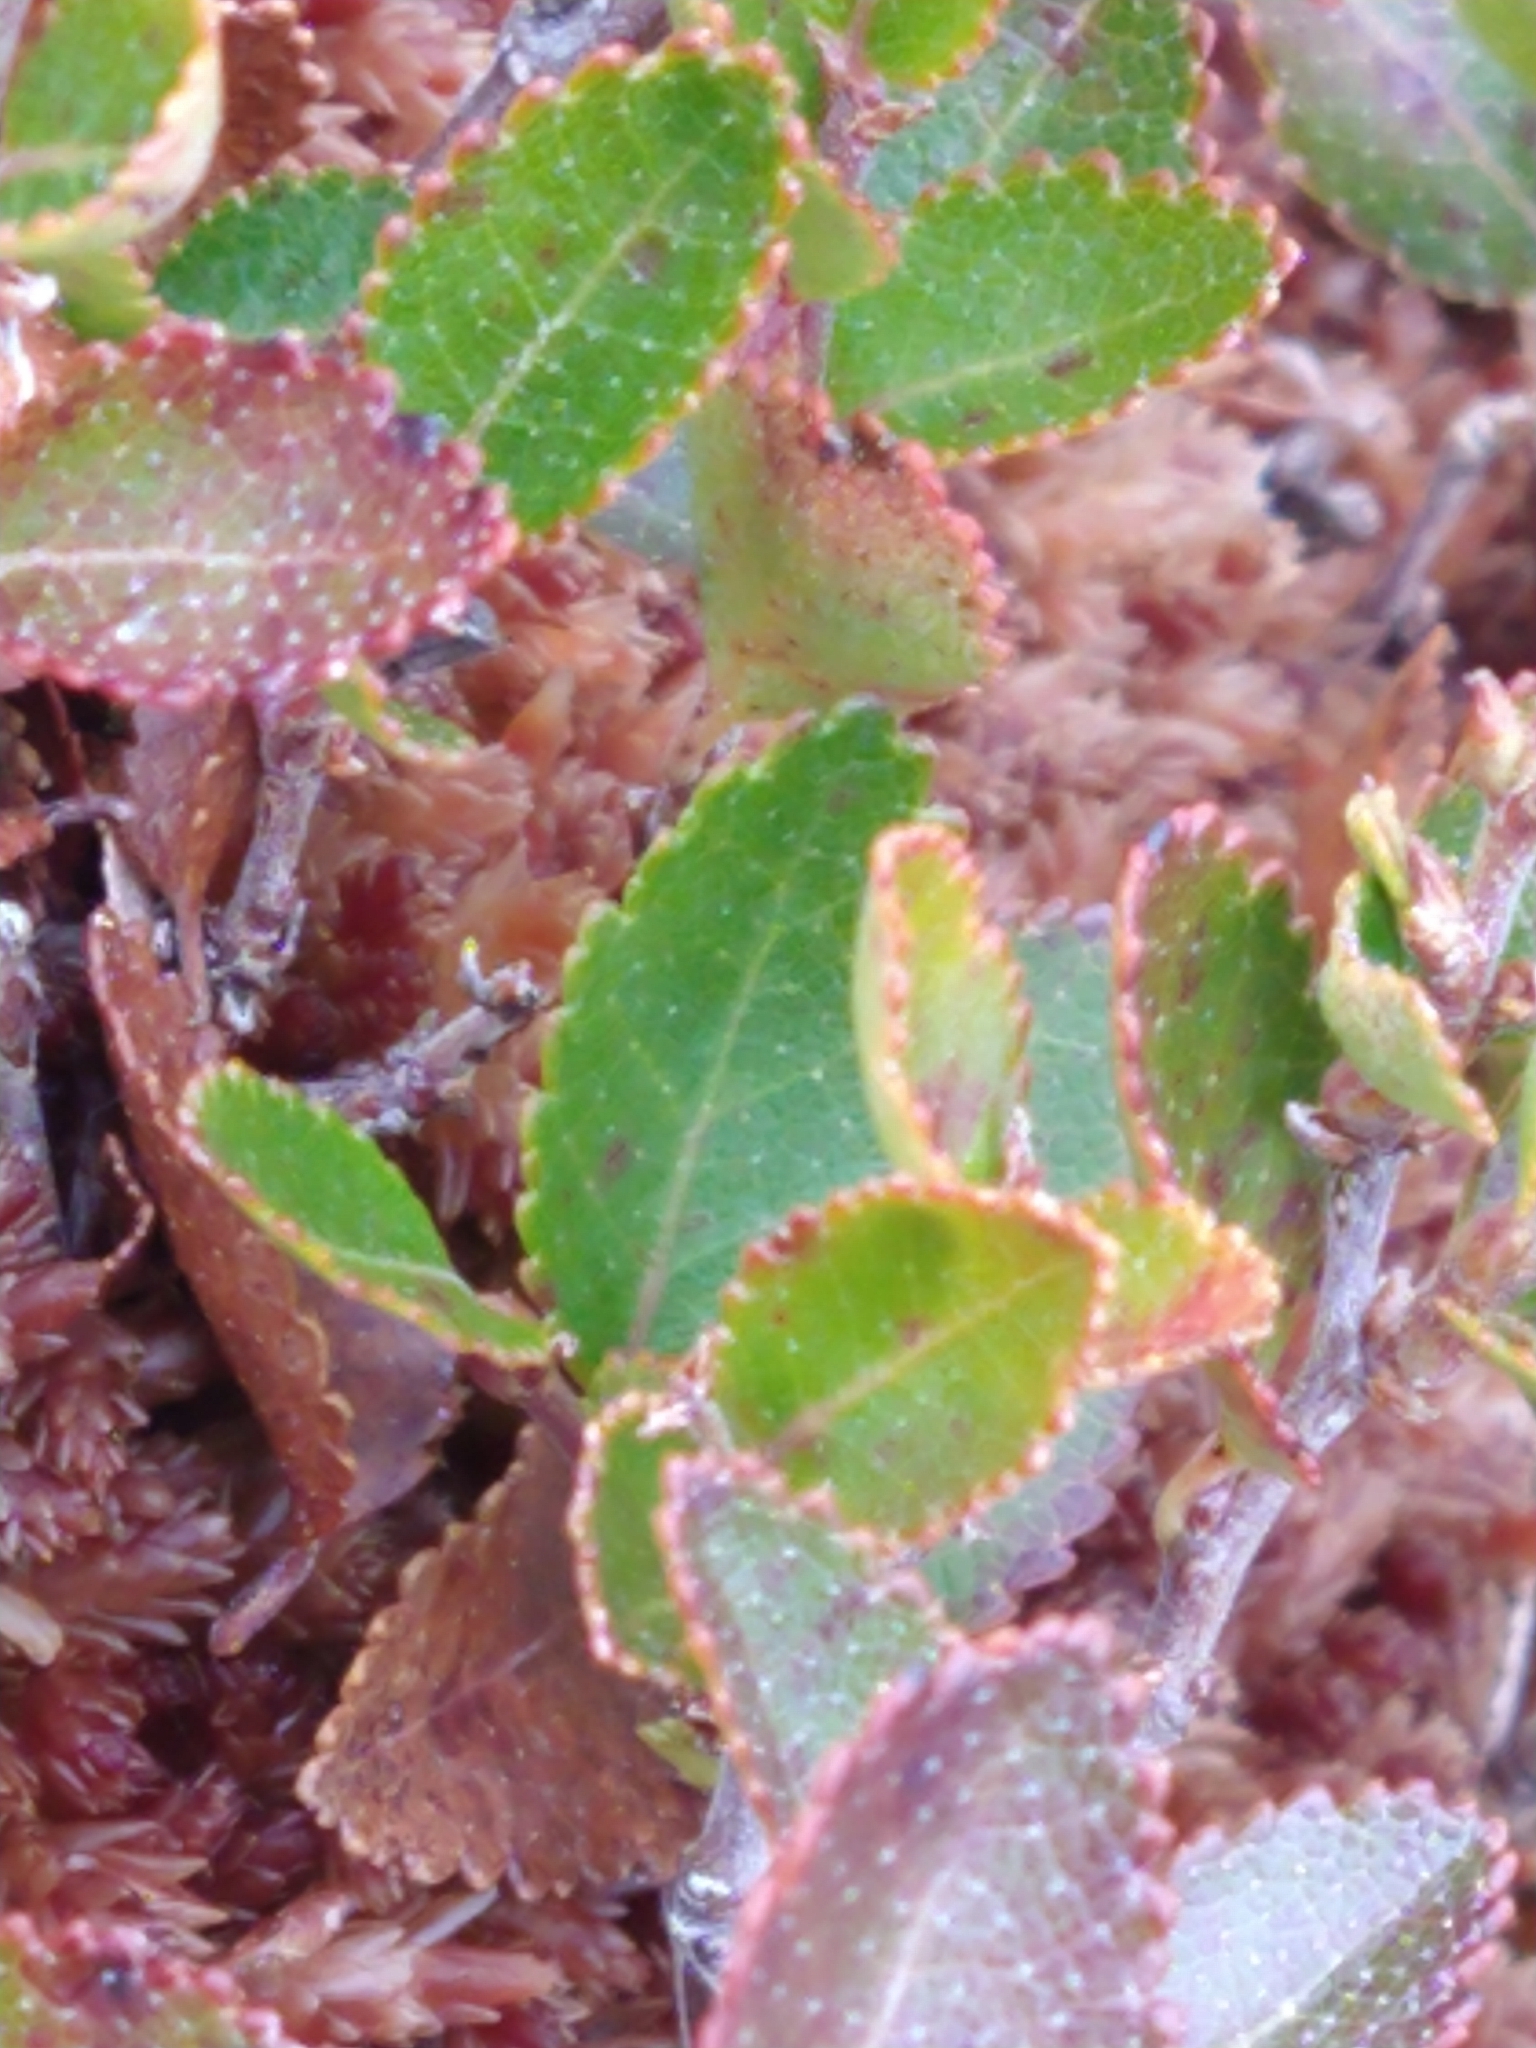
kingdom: Plantae
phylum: Tracheophyta
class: Magnoliopsida
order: Fagales
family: Nothofagaceae
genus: Nothofagus
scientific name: Nothofagus betuloides
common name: Magellan's beech
